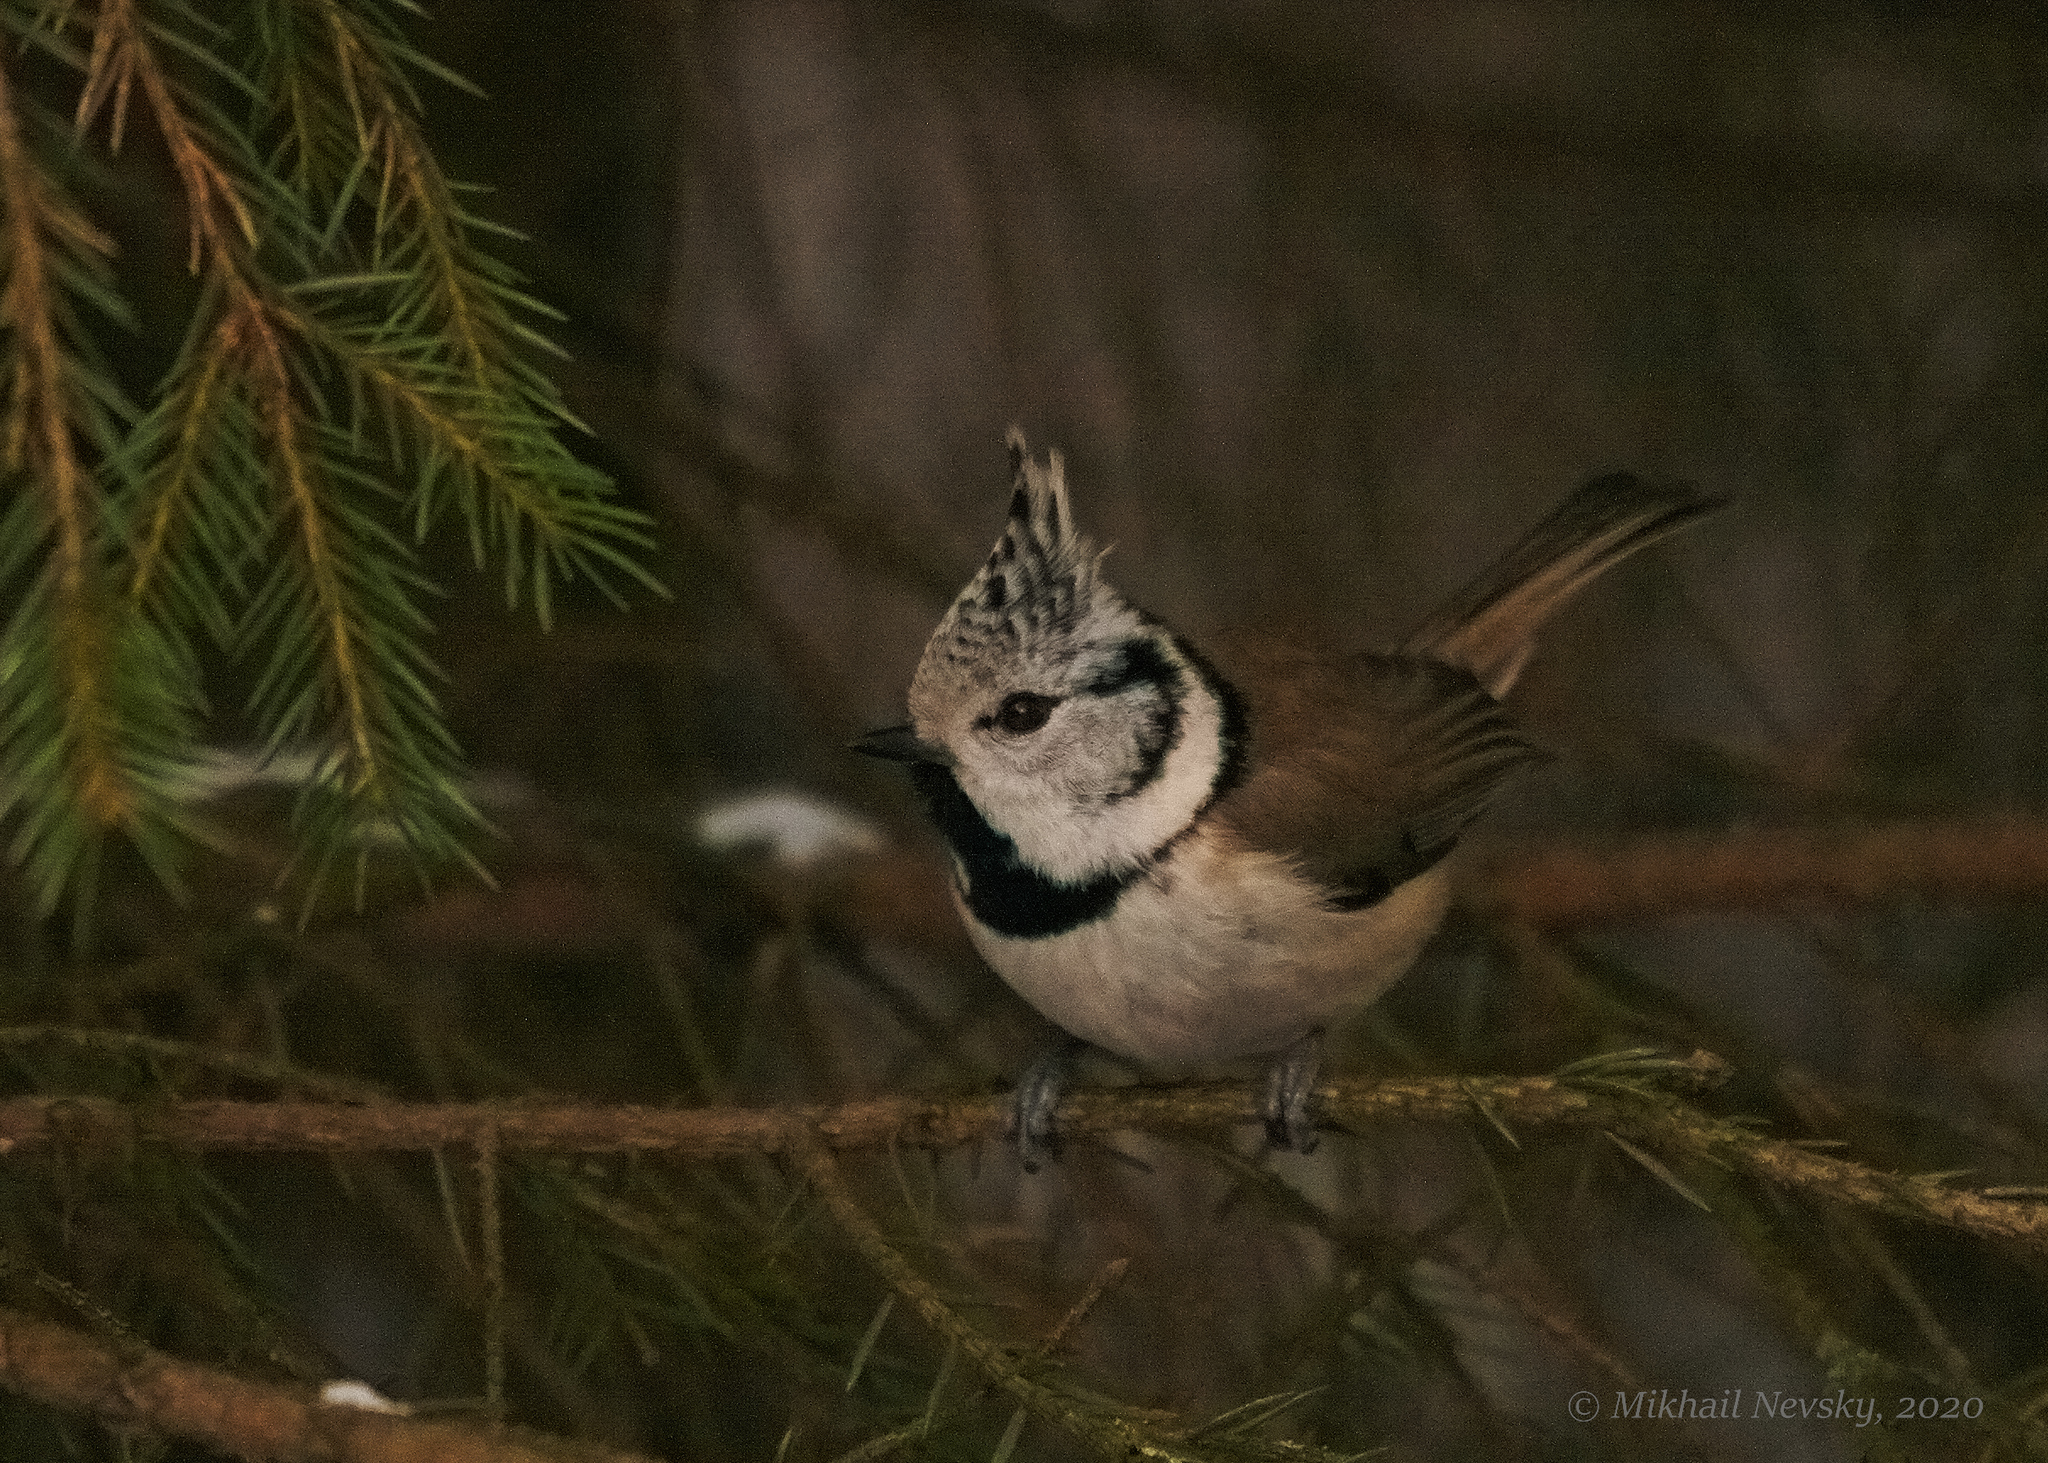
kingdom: Animalia
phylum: Chordata
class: Aves
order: Passeriformes
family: Paridae
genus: Lophophanes
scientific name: Lophophanes cristatus
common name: European crested tit
